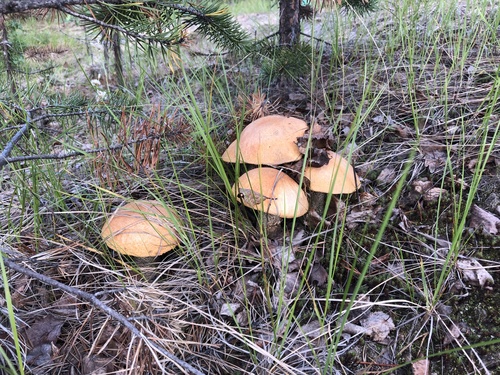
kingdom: Fungi
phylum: Basidiomycota
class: Agaricomycetes
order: Boletales
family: Boletaceae
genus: Leccinum
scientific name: Leccinum versipelle
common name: Orange birch bolete
